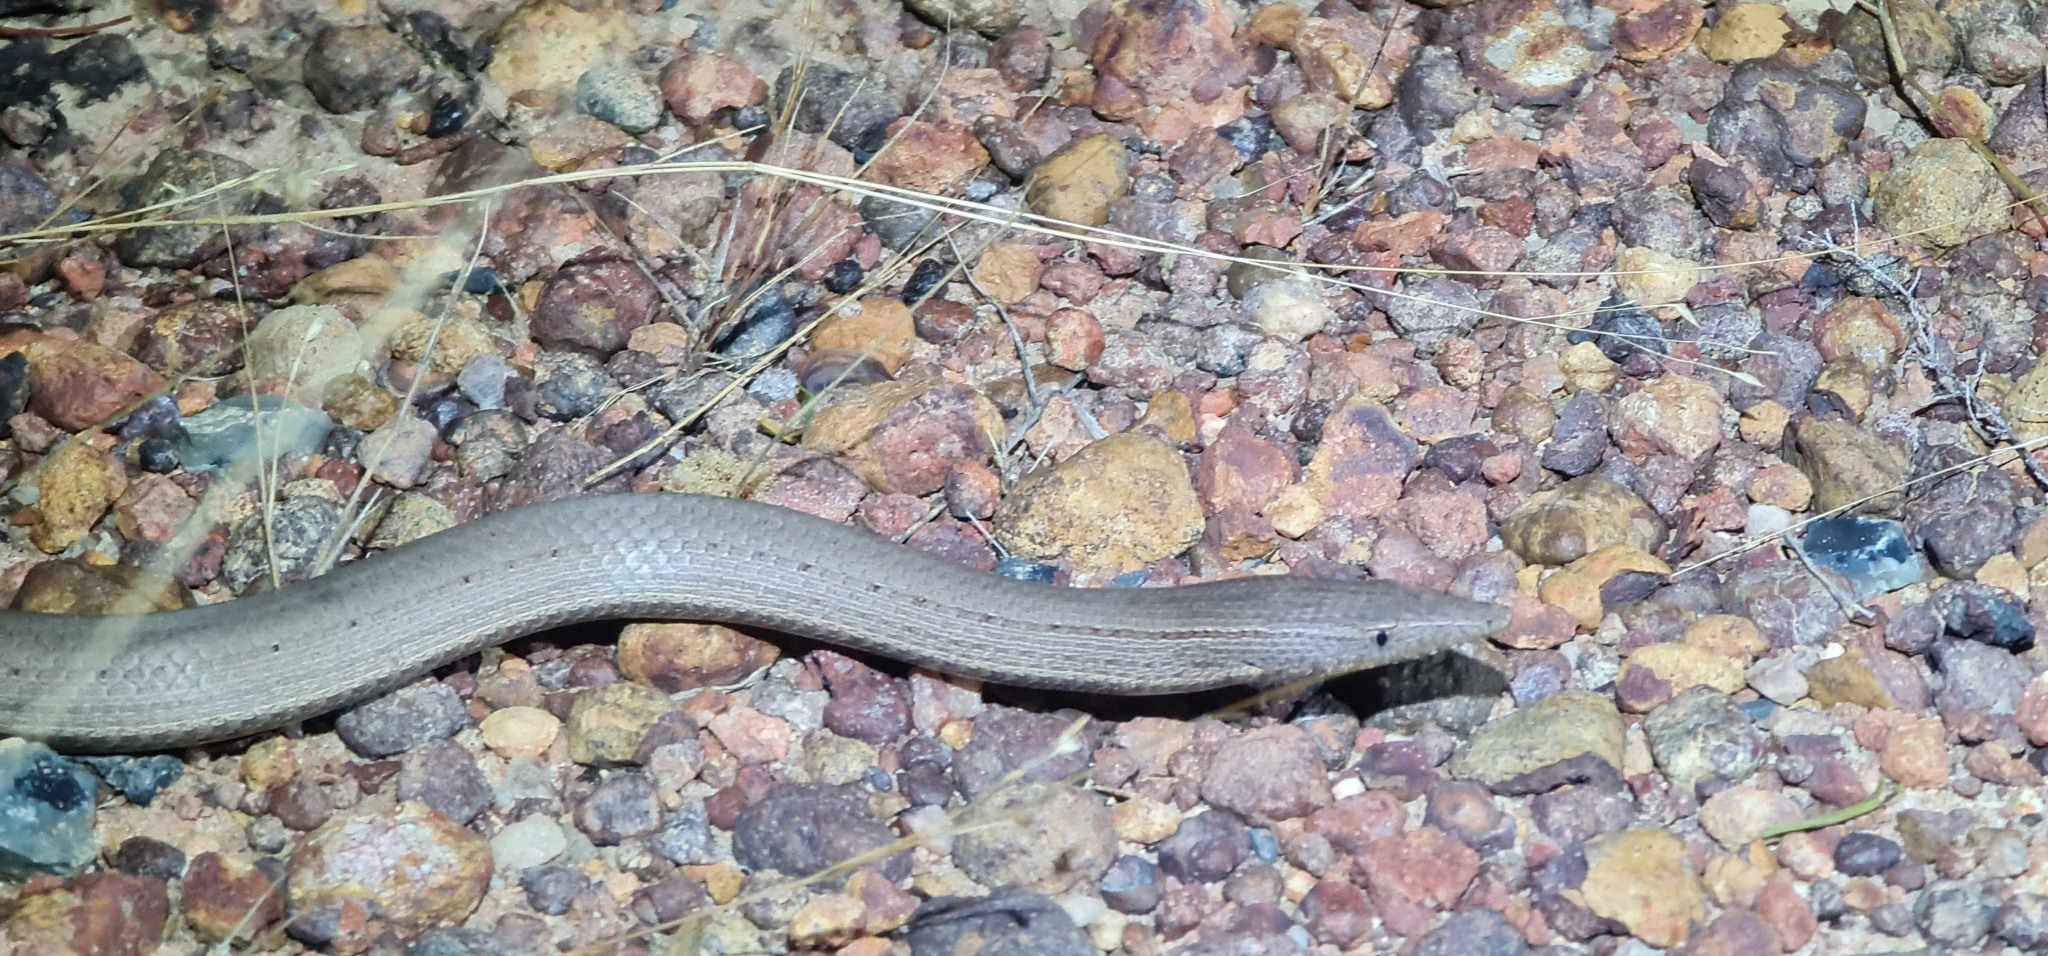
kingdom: Animalia
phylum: Chordata
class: Squamata
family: Pygopodidae
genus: Lialis
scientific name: Lialis burtonis
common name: Burton's legless lizard
